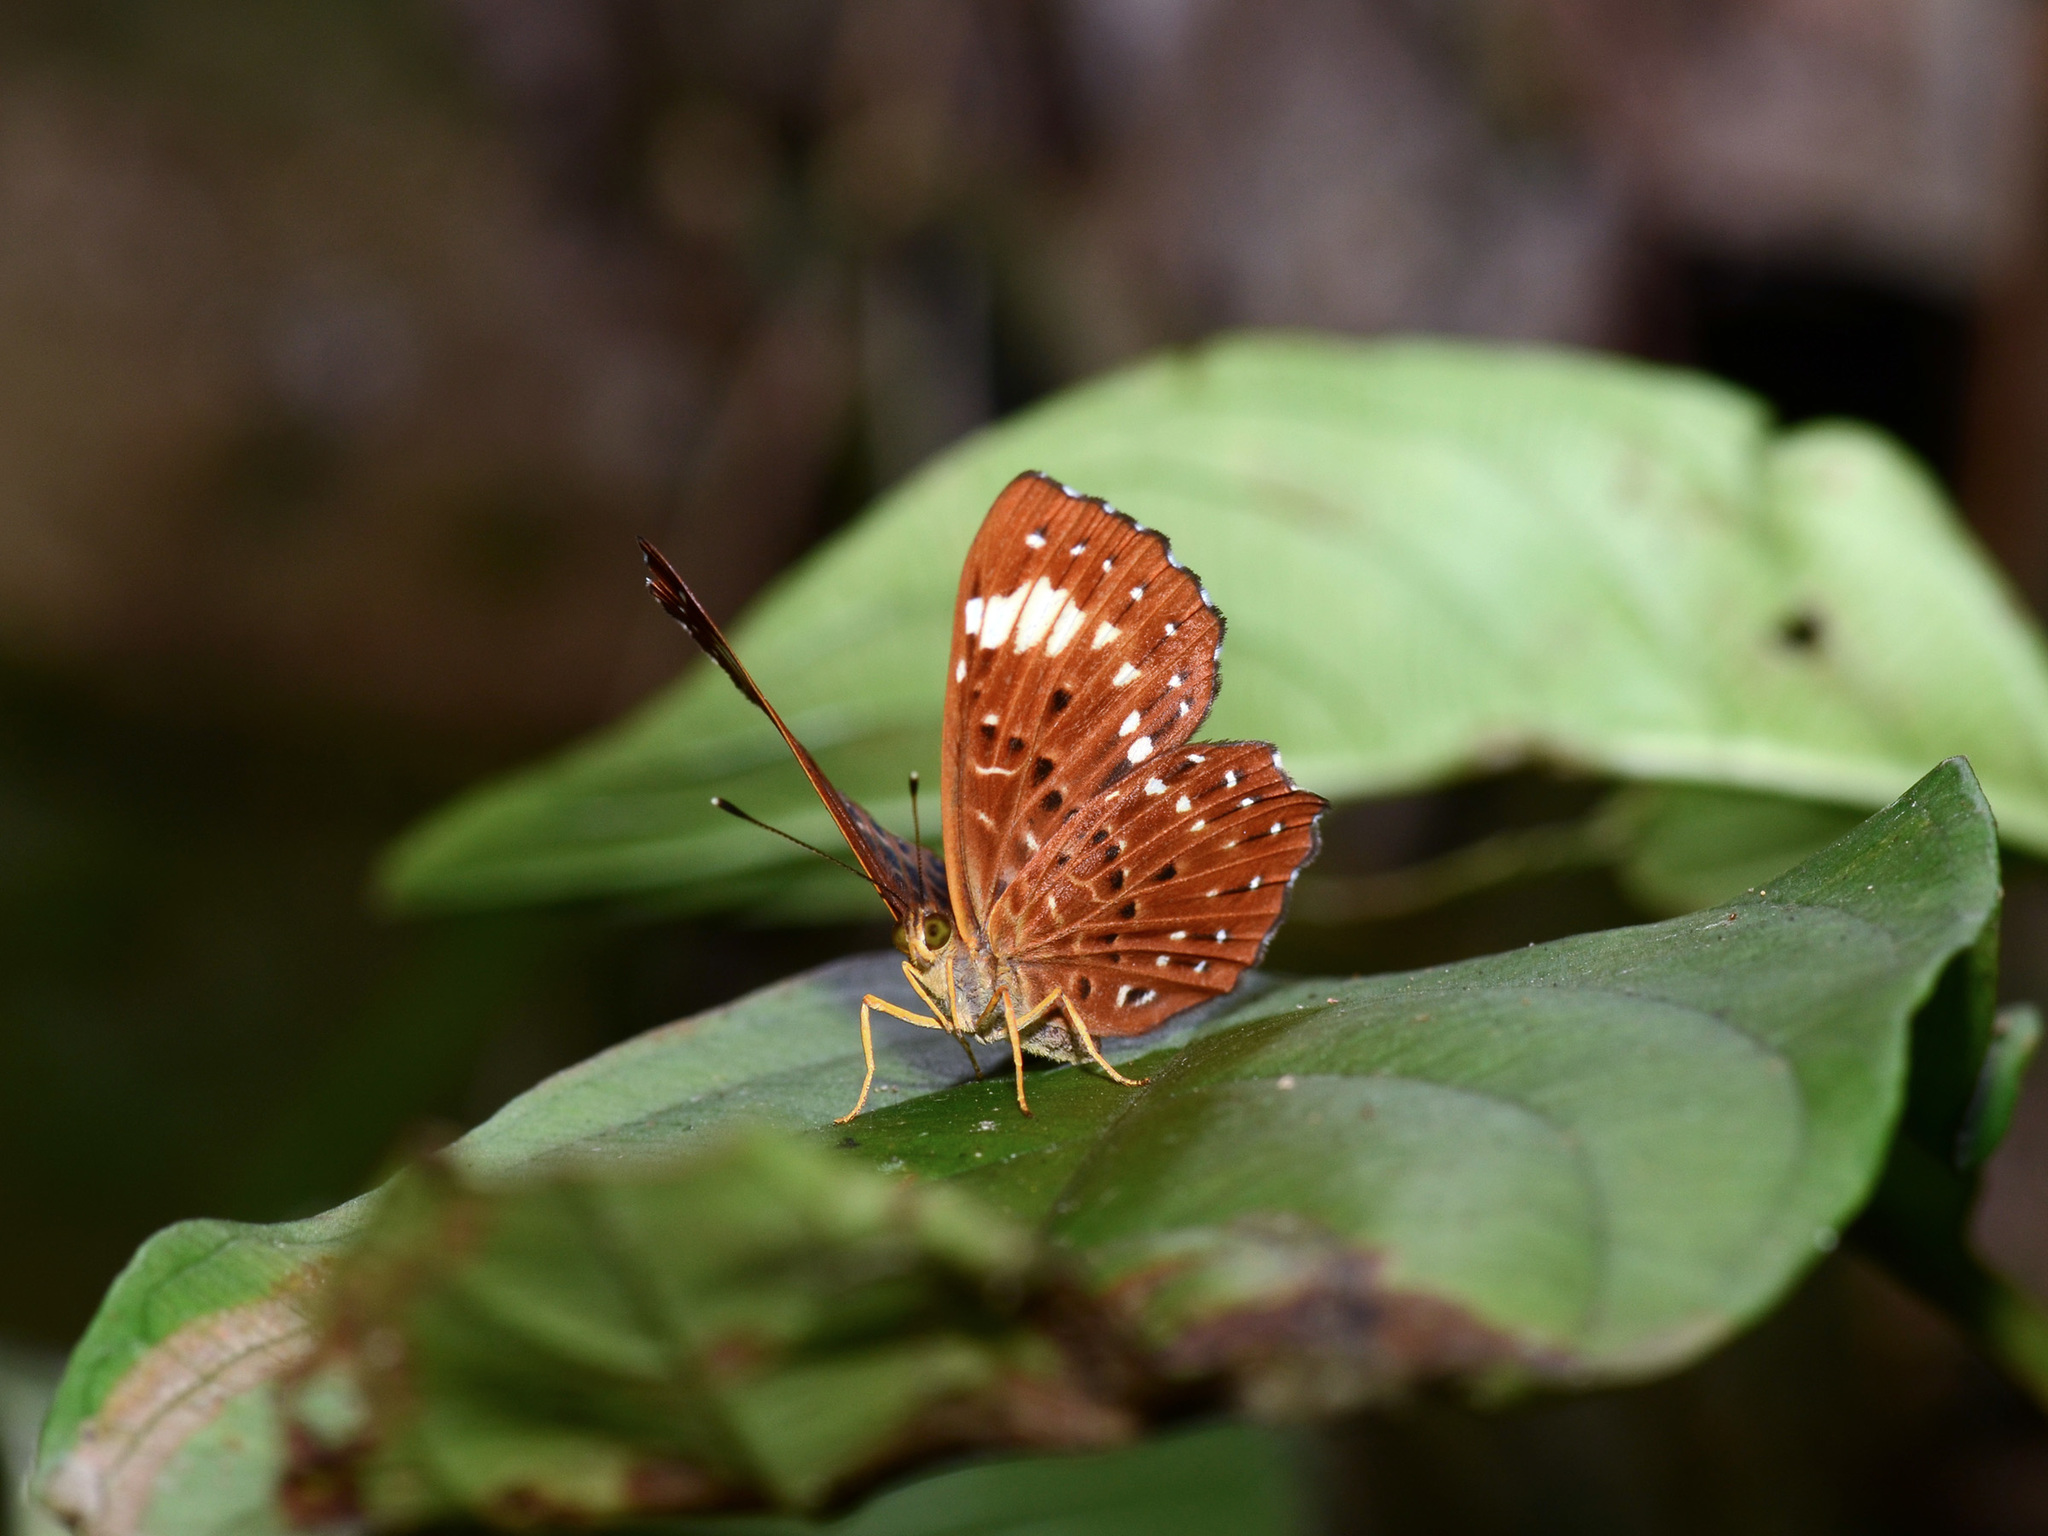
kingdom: Animalia
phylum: Arthropoda
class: Insecta
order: Lepidoptera
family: Riodinidae
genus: Zemeros
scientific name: Zemeros flegyas
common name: Punchinello
